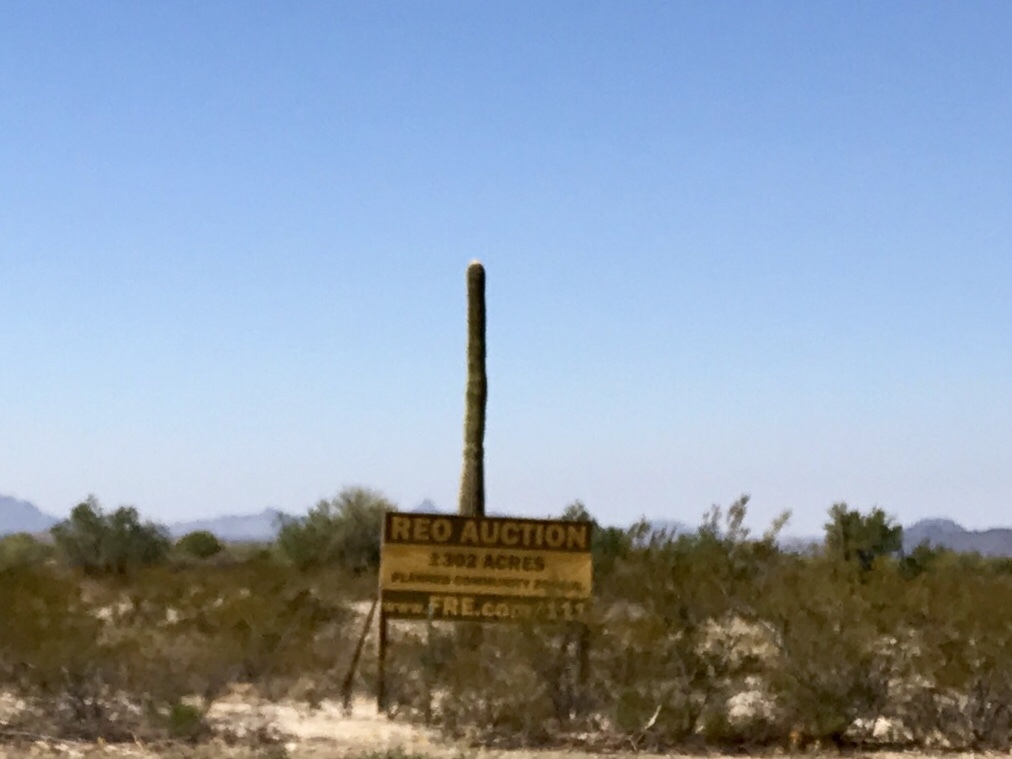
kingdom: Plantae
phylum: Tracheophyta
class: Magnoliopsida
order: Caryophyllales
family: Cactaceae
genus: Carnegiea
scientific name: Carnegiea gigantea
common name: Saguaro
